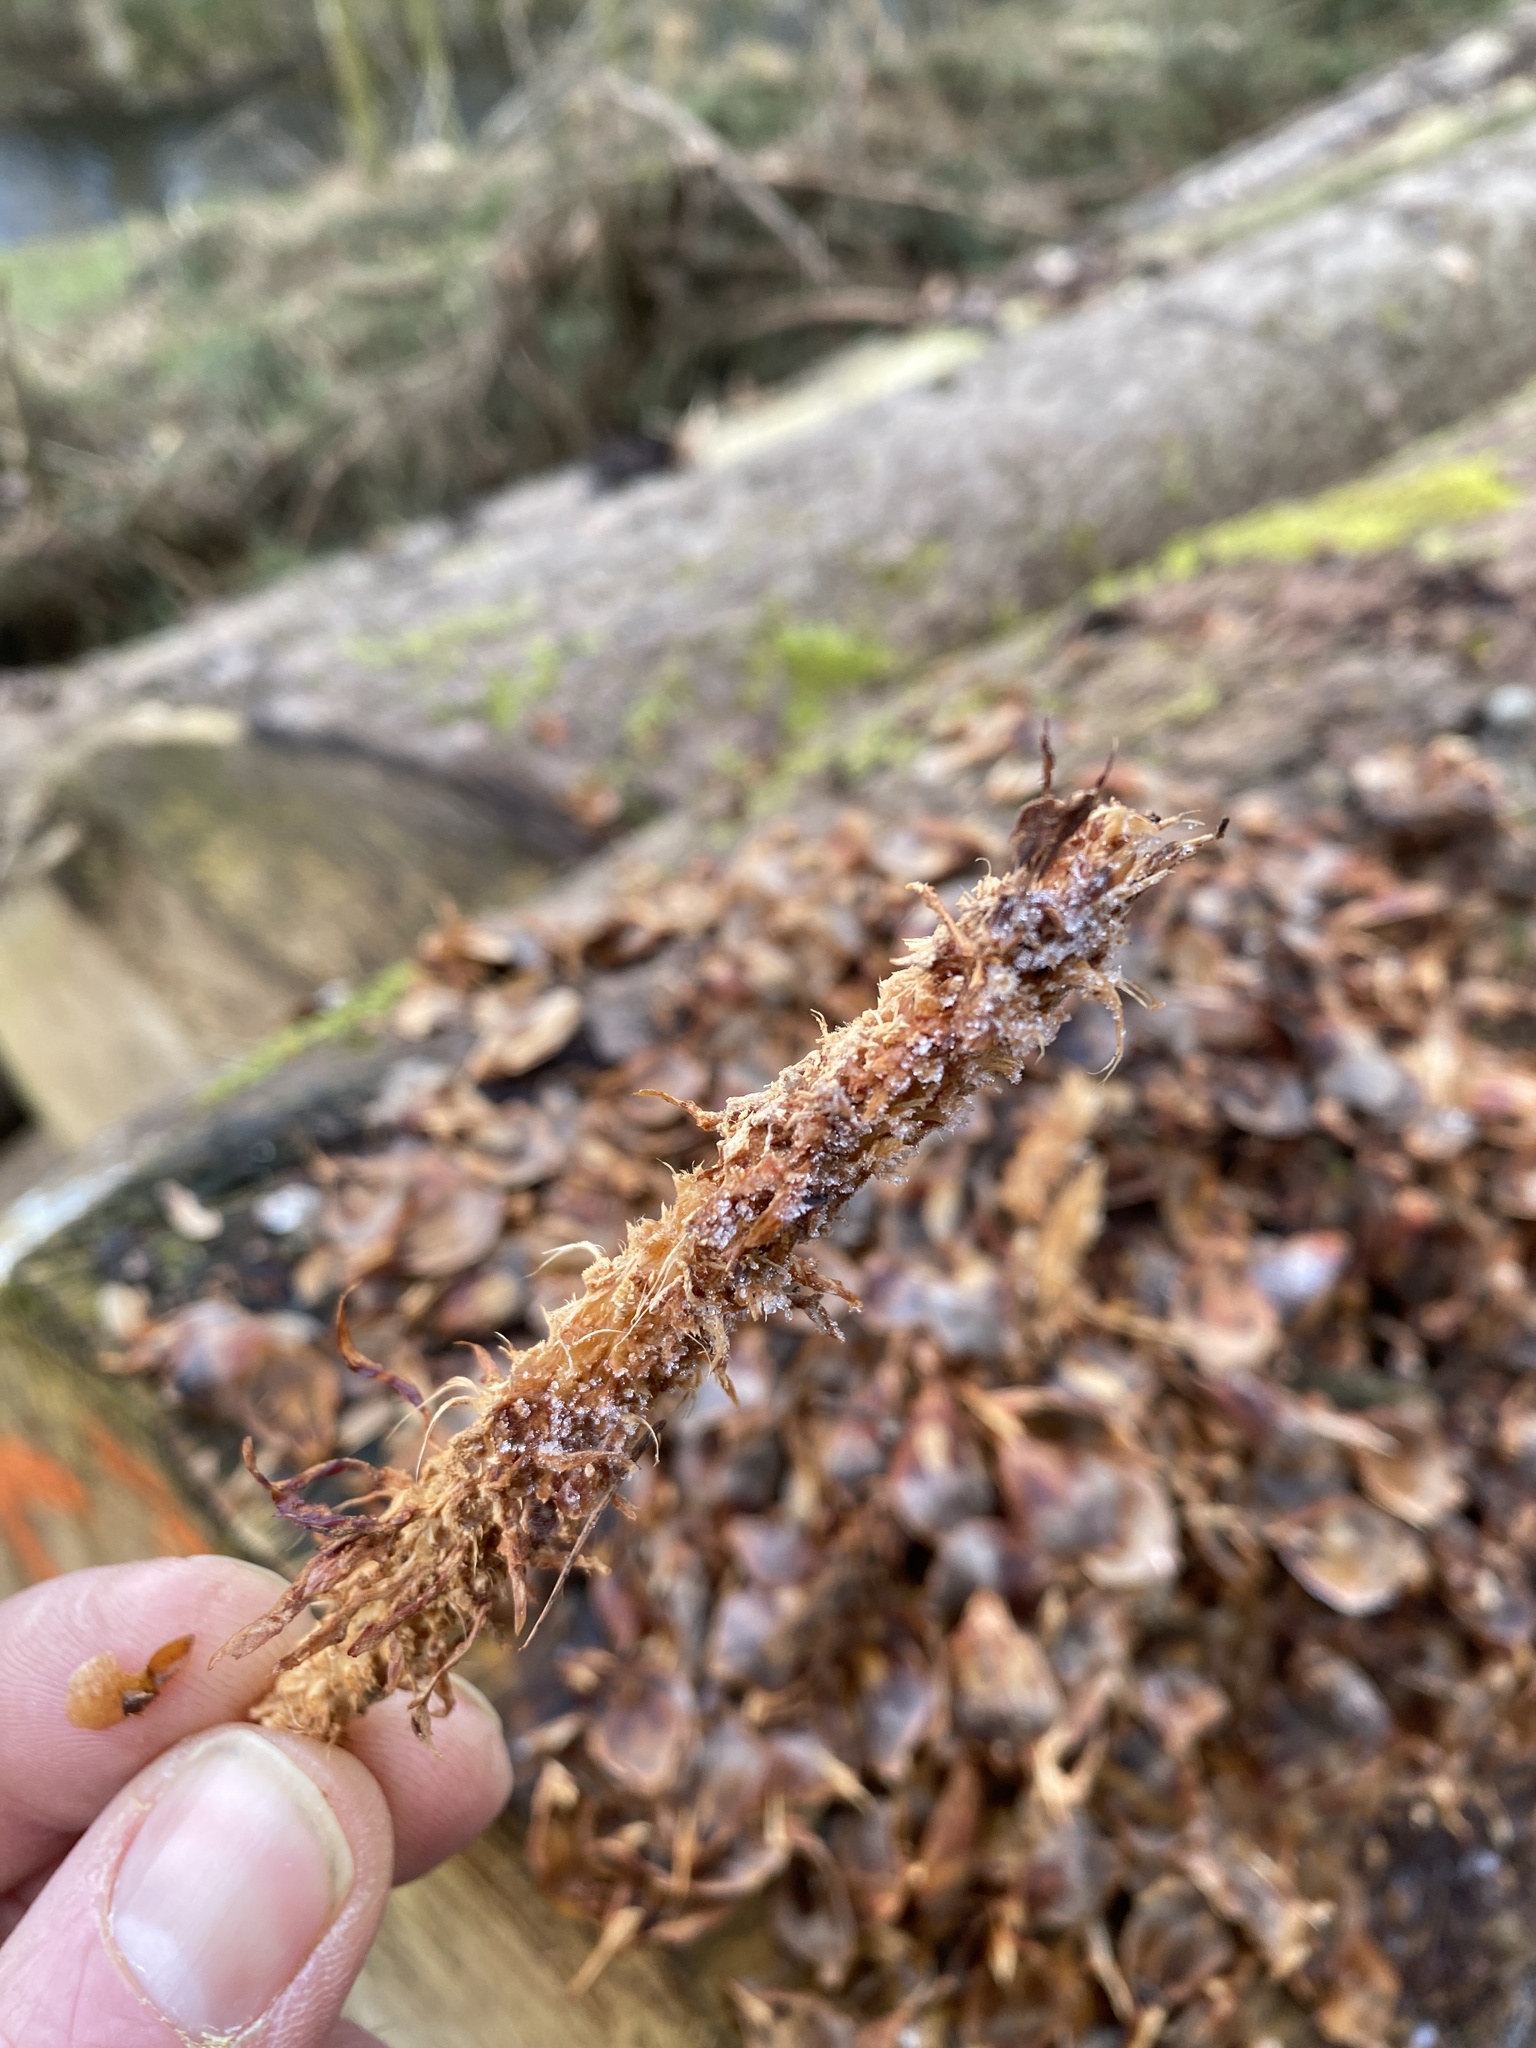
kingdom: Animalia
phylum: Chordata
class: Mammalia
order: Rodentia
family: Sciuridae
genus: Sciurus
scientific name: Sciurus vulgaris
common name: Eurasian red squirrel
